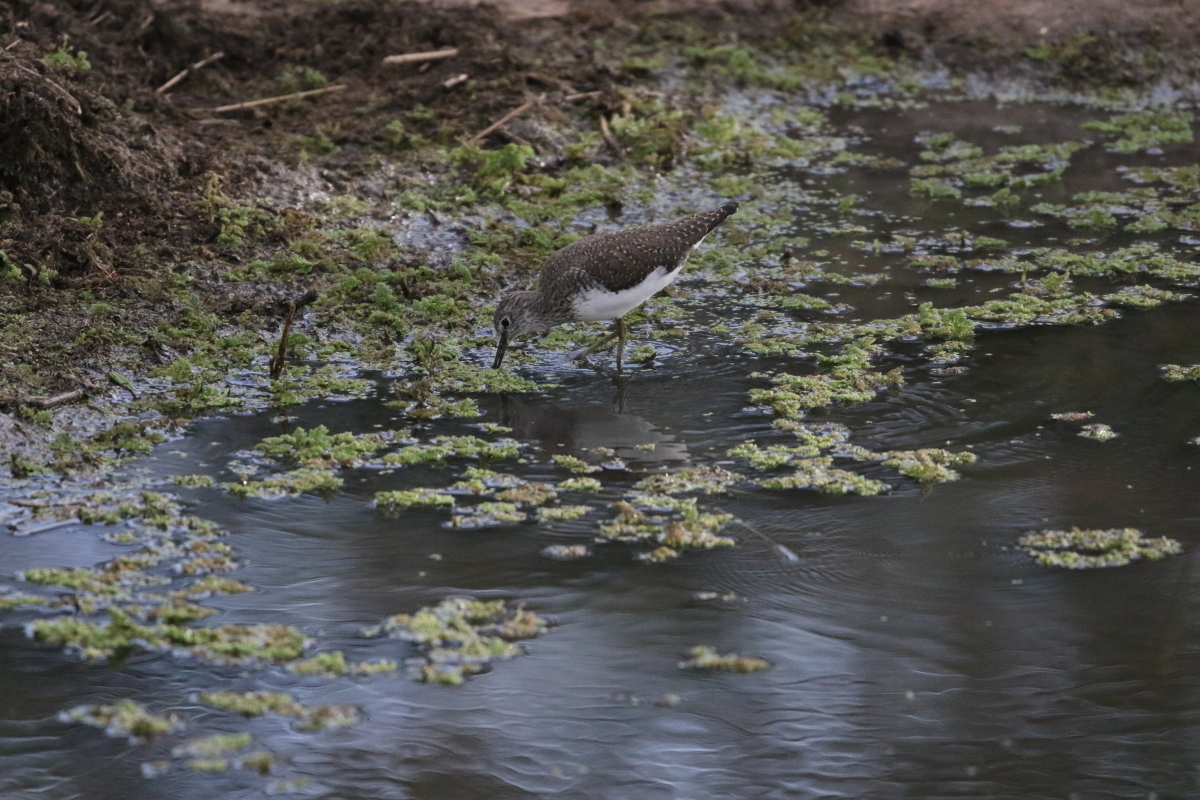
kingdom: Animalia
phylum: Chordata
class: Aves
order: Charadriiformes
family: Scolopacidae
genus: Tringa
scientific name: Tringa ochropus
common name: Green sandpiper
